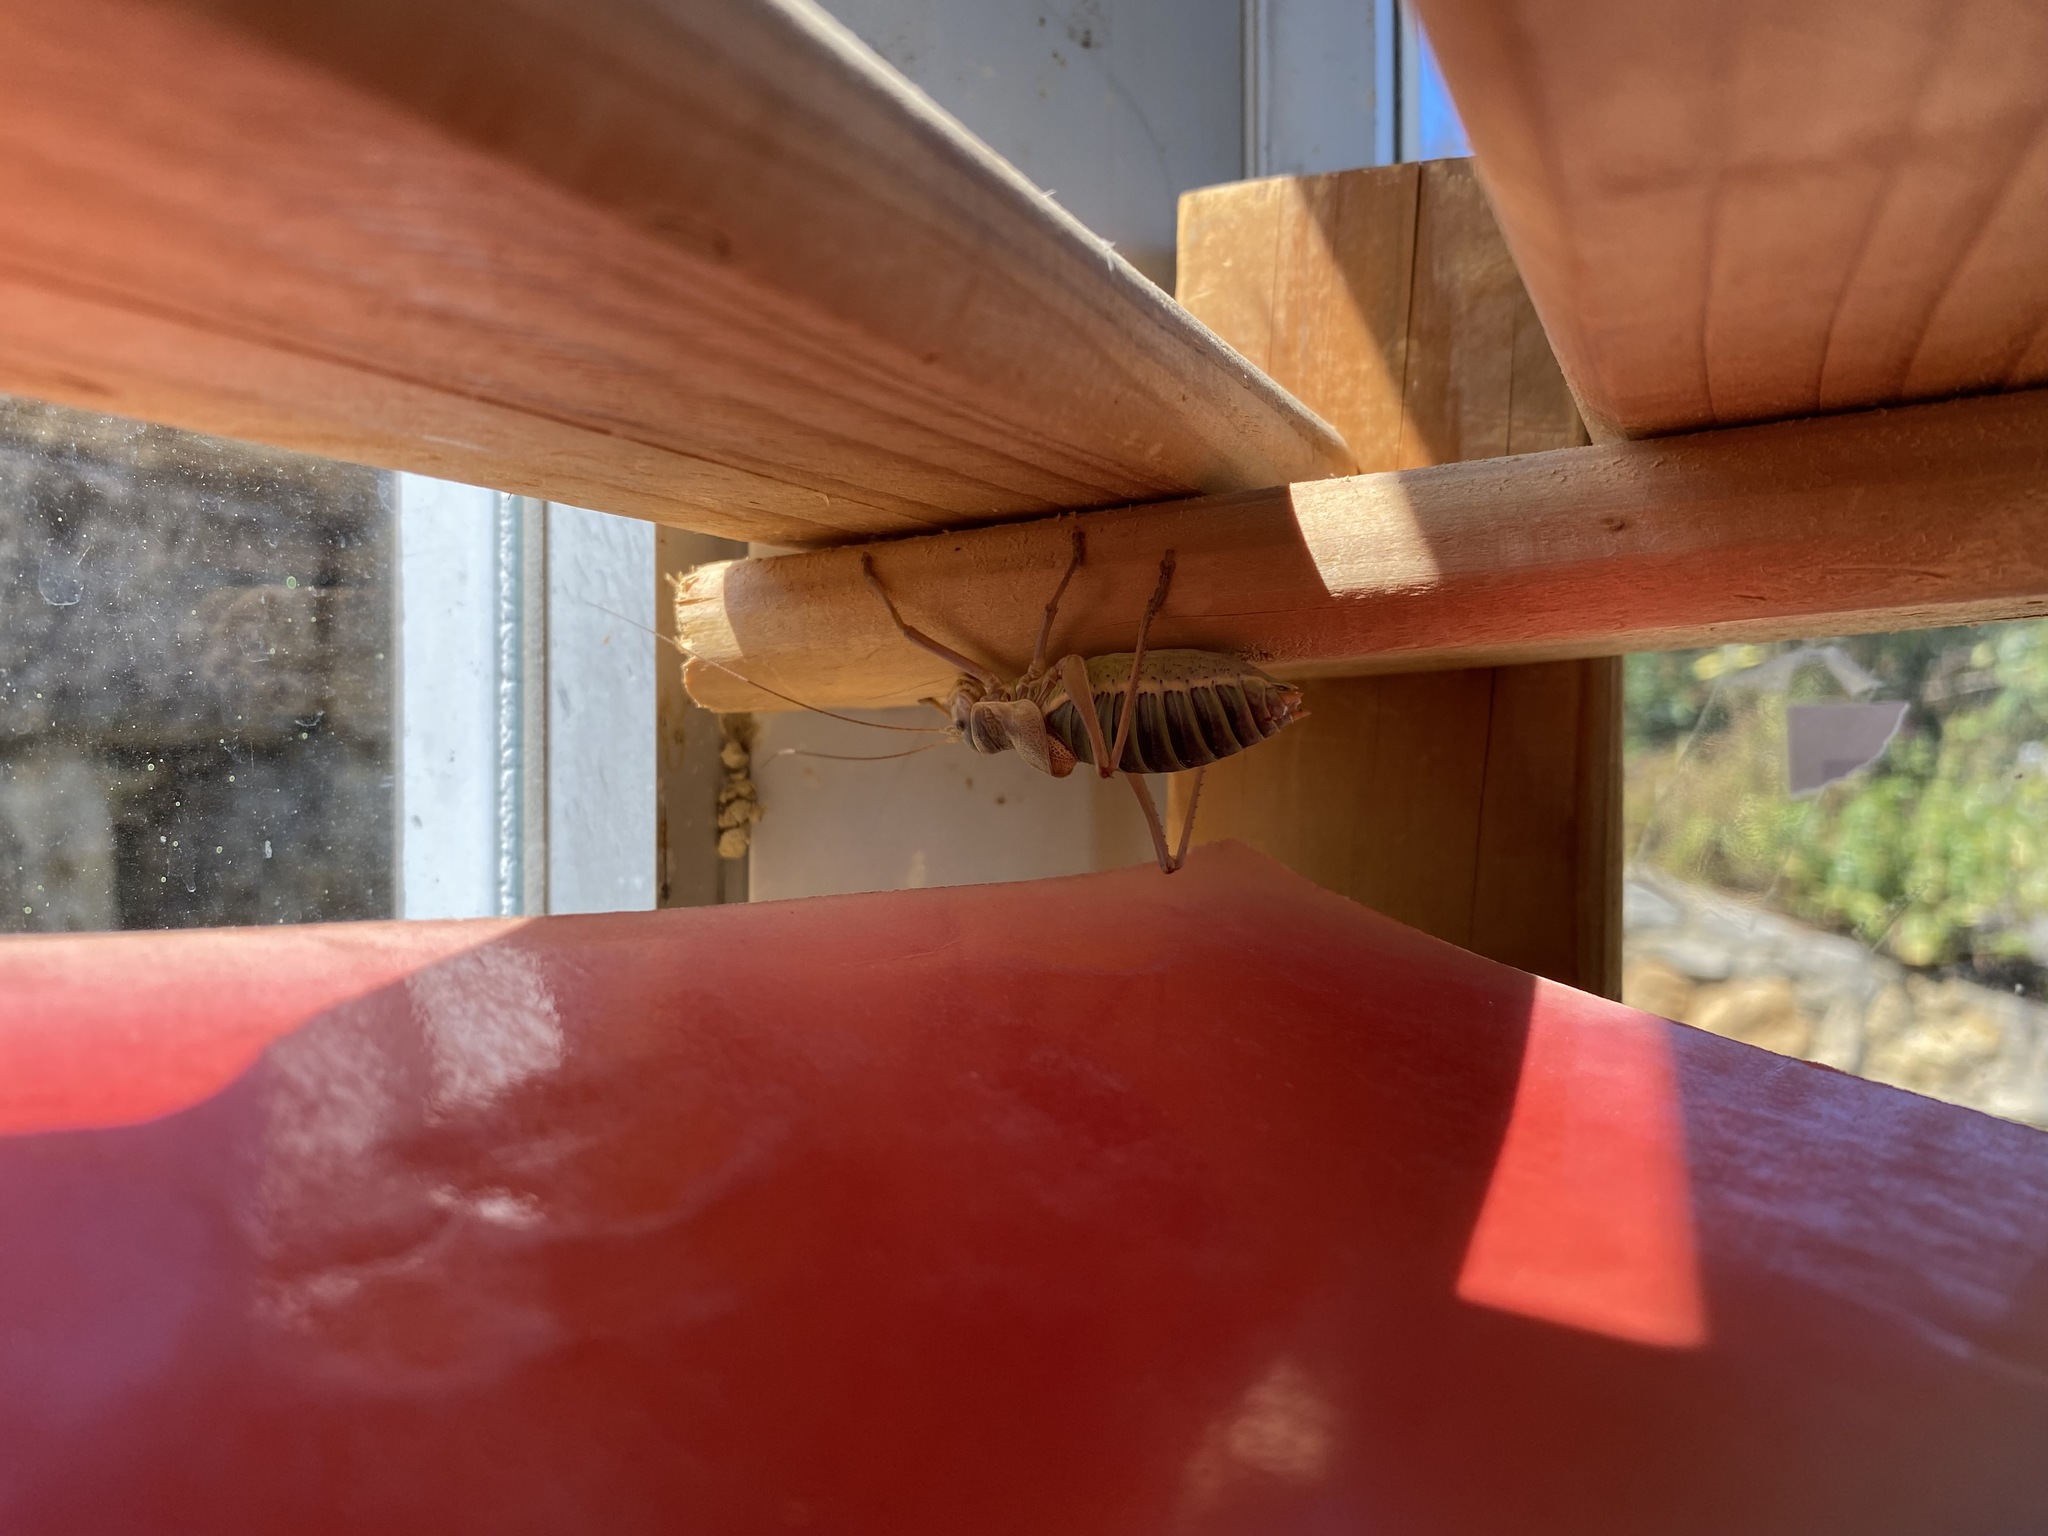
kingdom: Animalia
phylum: Arthropoda
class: Insecta
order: Orthoptera
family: Tettigoniidae
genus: Ephippiger
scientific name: Ephippiger diurnus
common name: Western saddle bush-cricket
